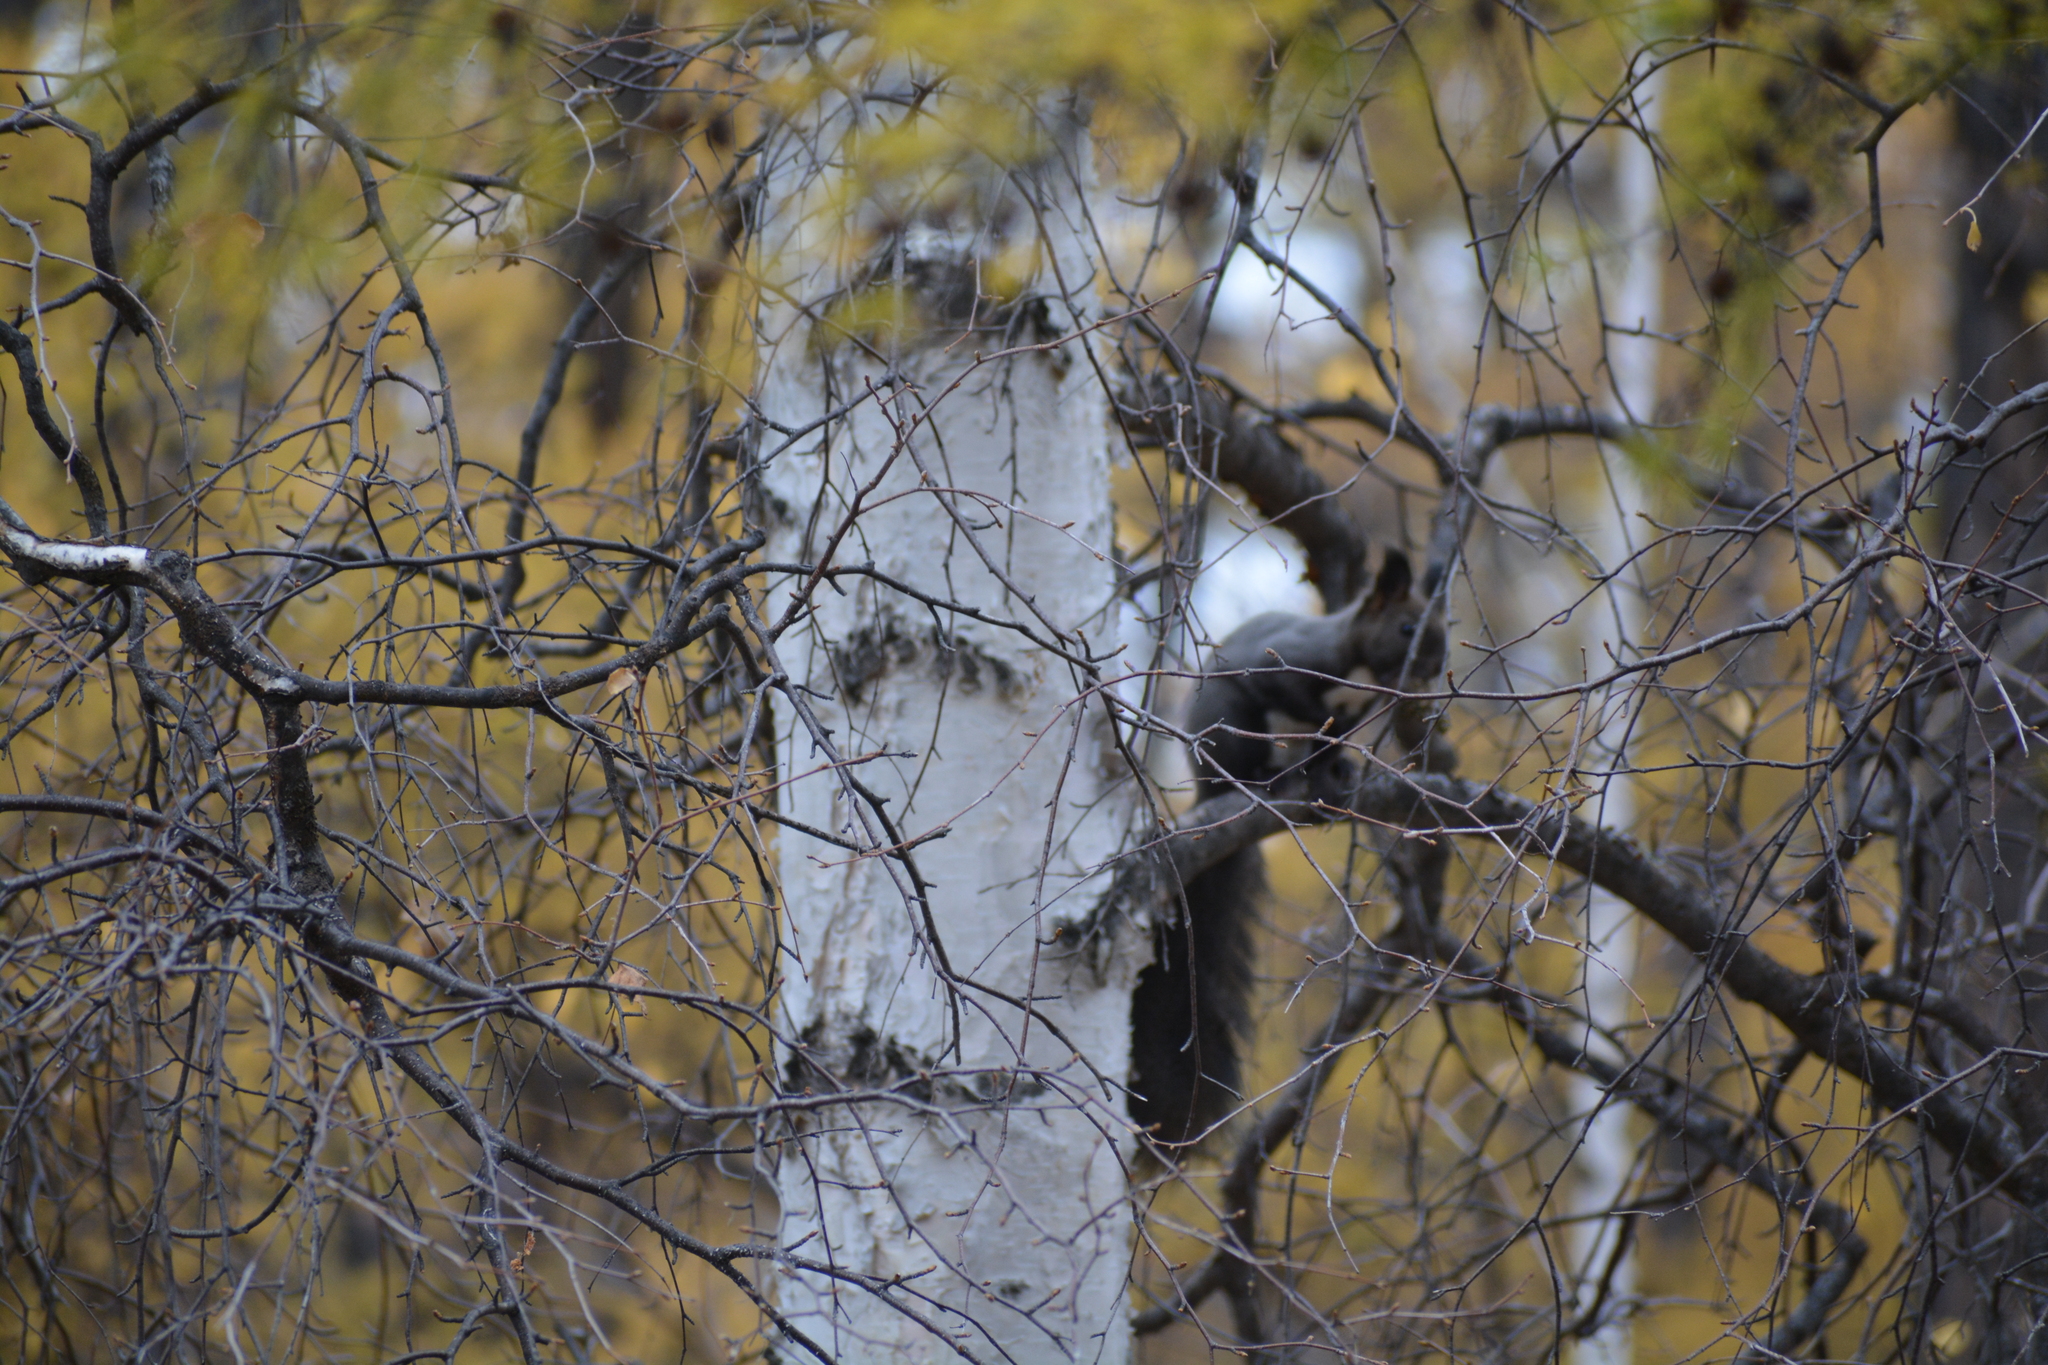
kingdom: Animalia
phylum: Chordata
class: Mammalia
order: Rodentia
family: Sciuridae
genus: Sciurus
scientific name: Sciurus vulgaris
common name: Eurasian red squirrel
